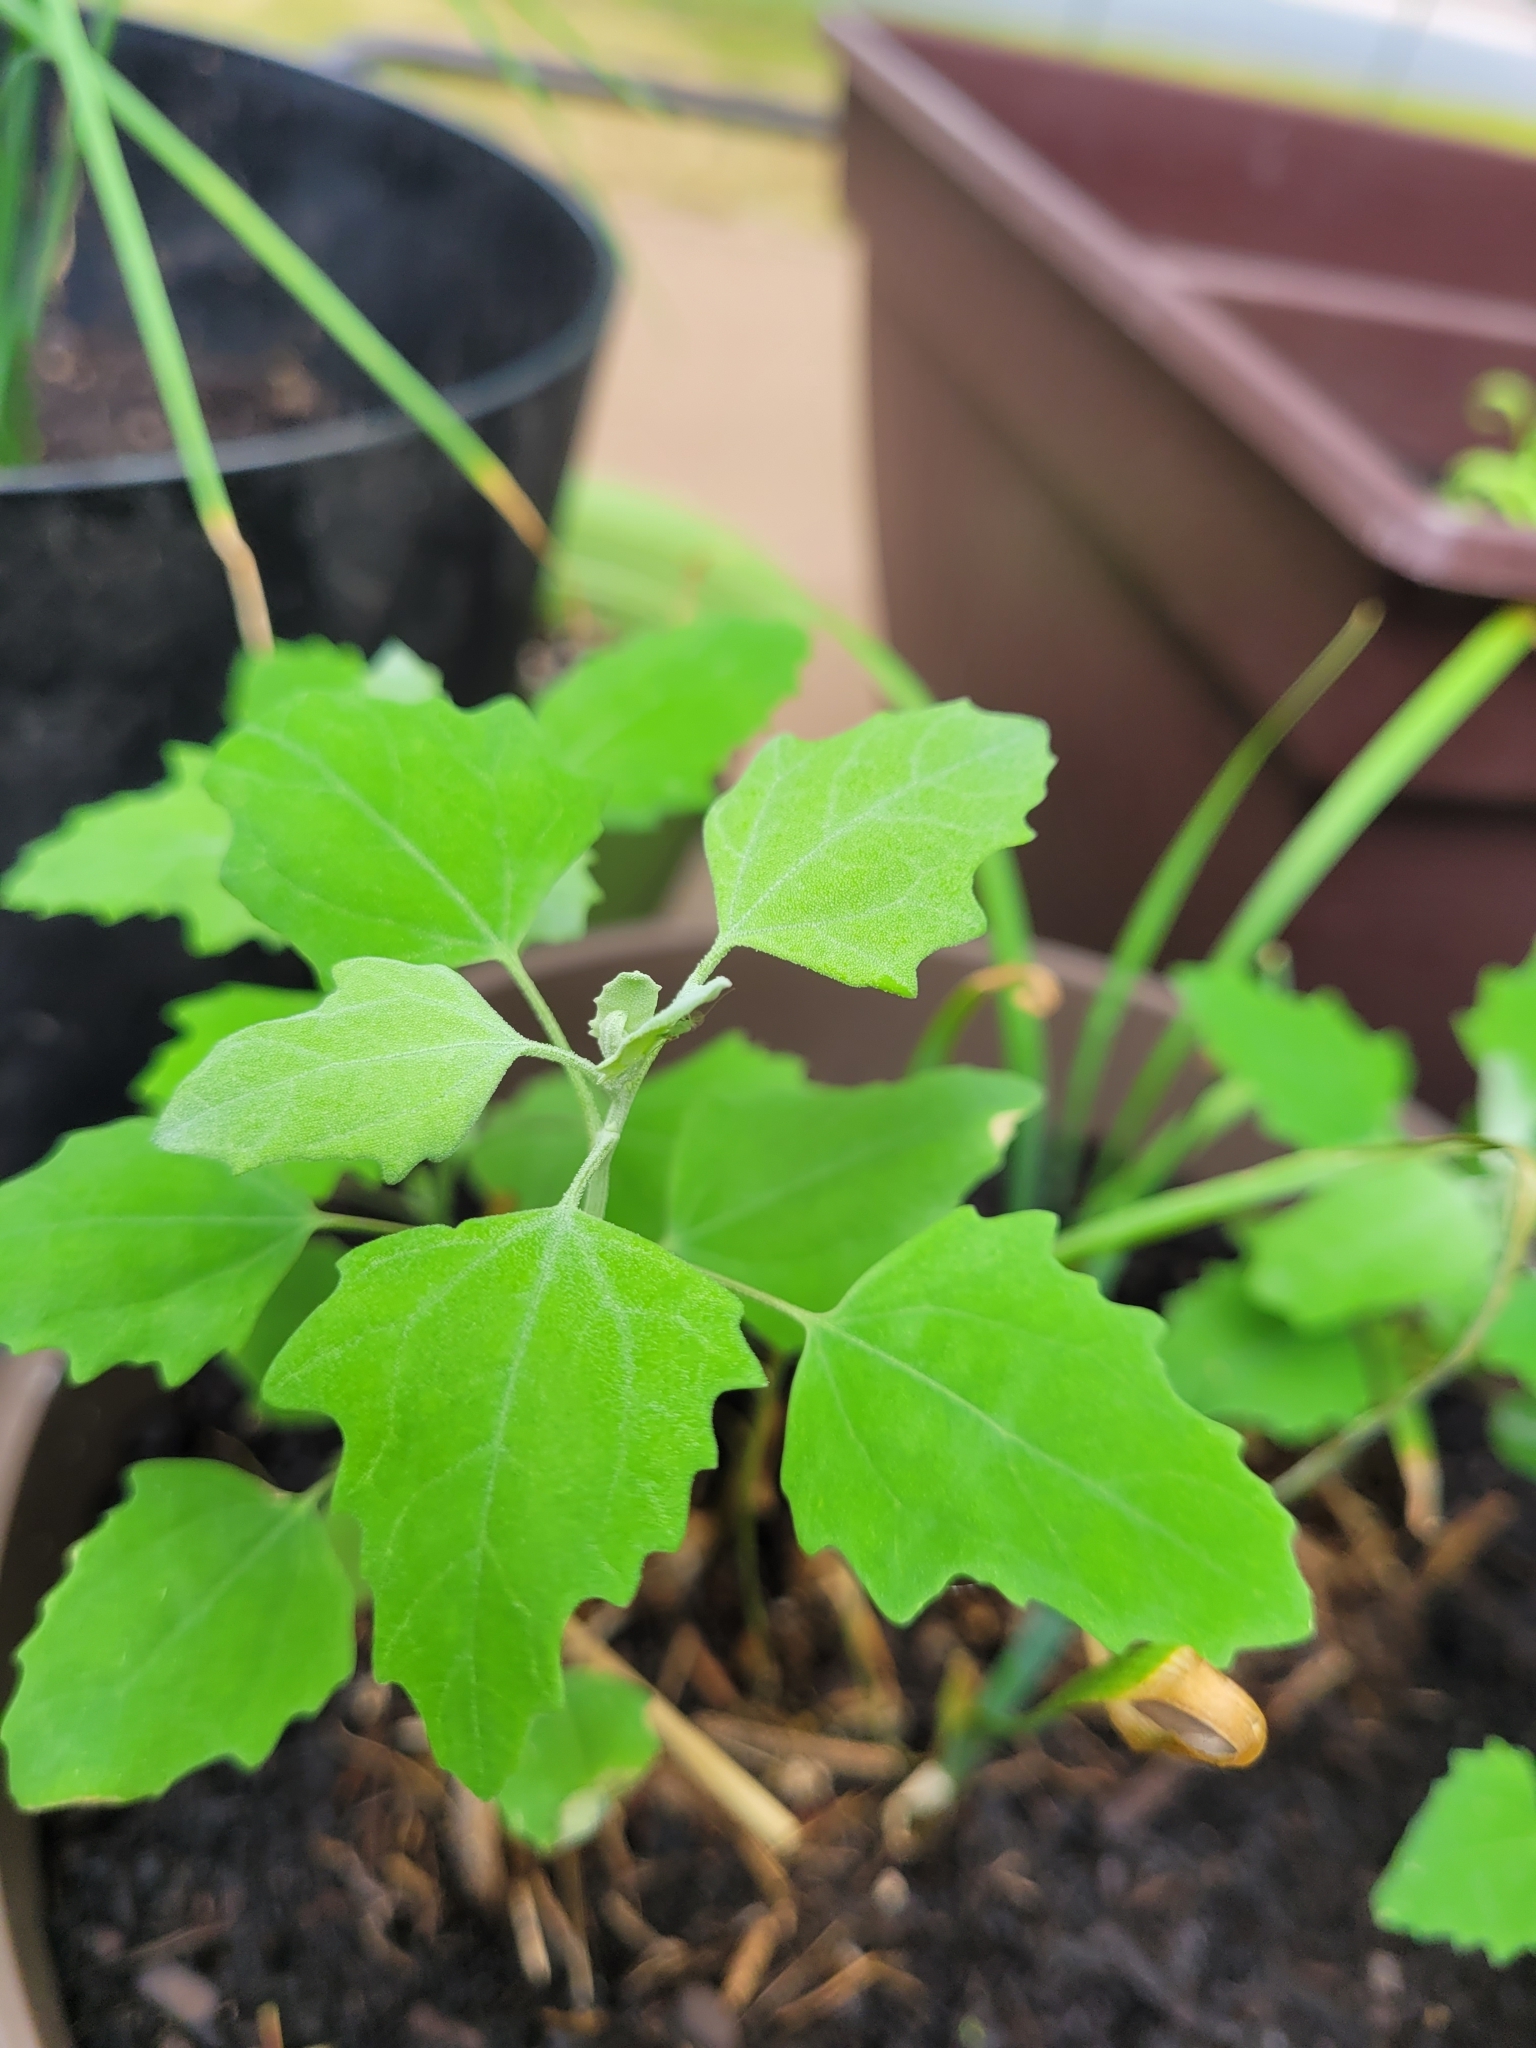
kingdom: Plantae
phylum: Tracheophyta
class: Magnoliopsida
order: Caryophyllales
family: Amaranthaceae
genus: Chenopodium
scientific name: Chenopodium album
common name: Fat-hen
